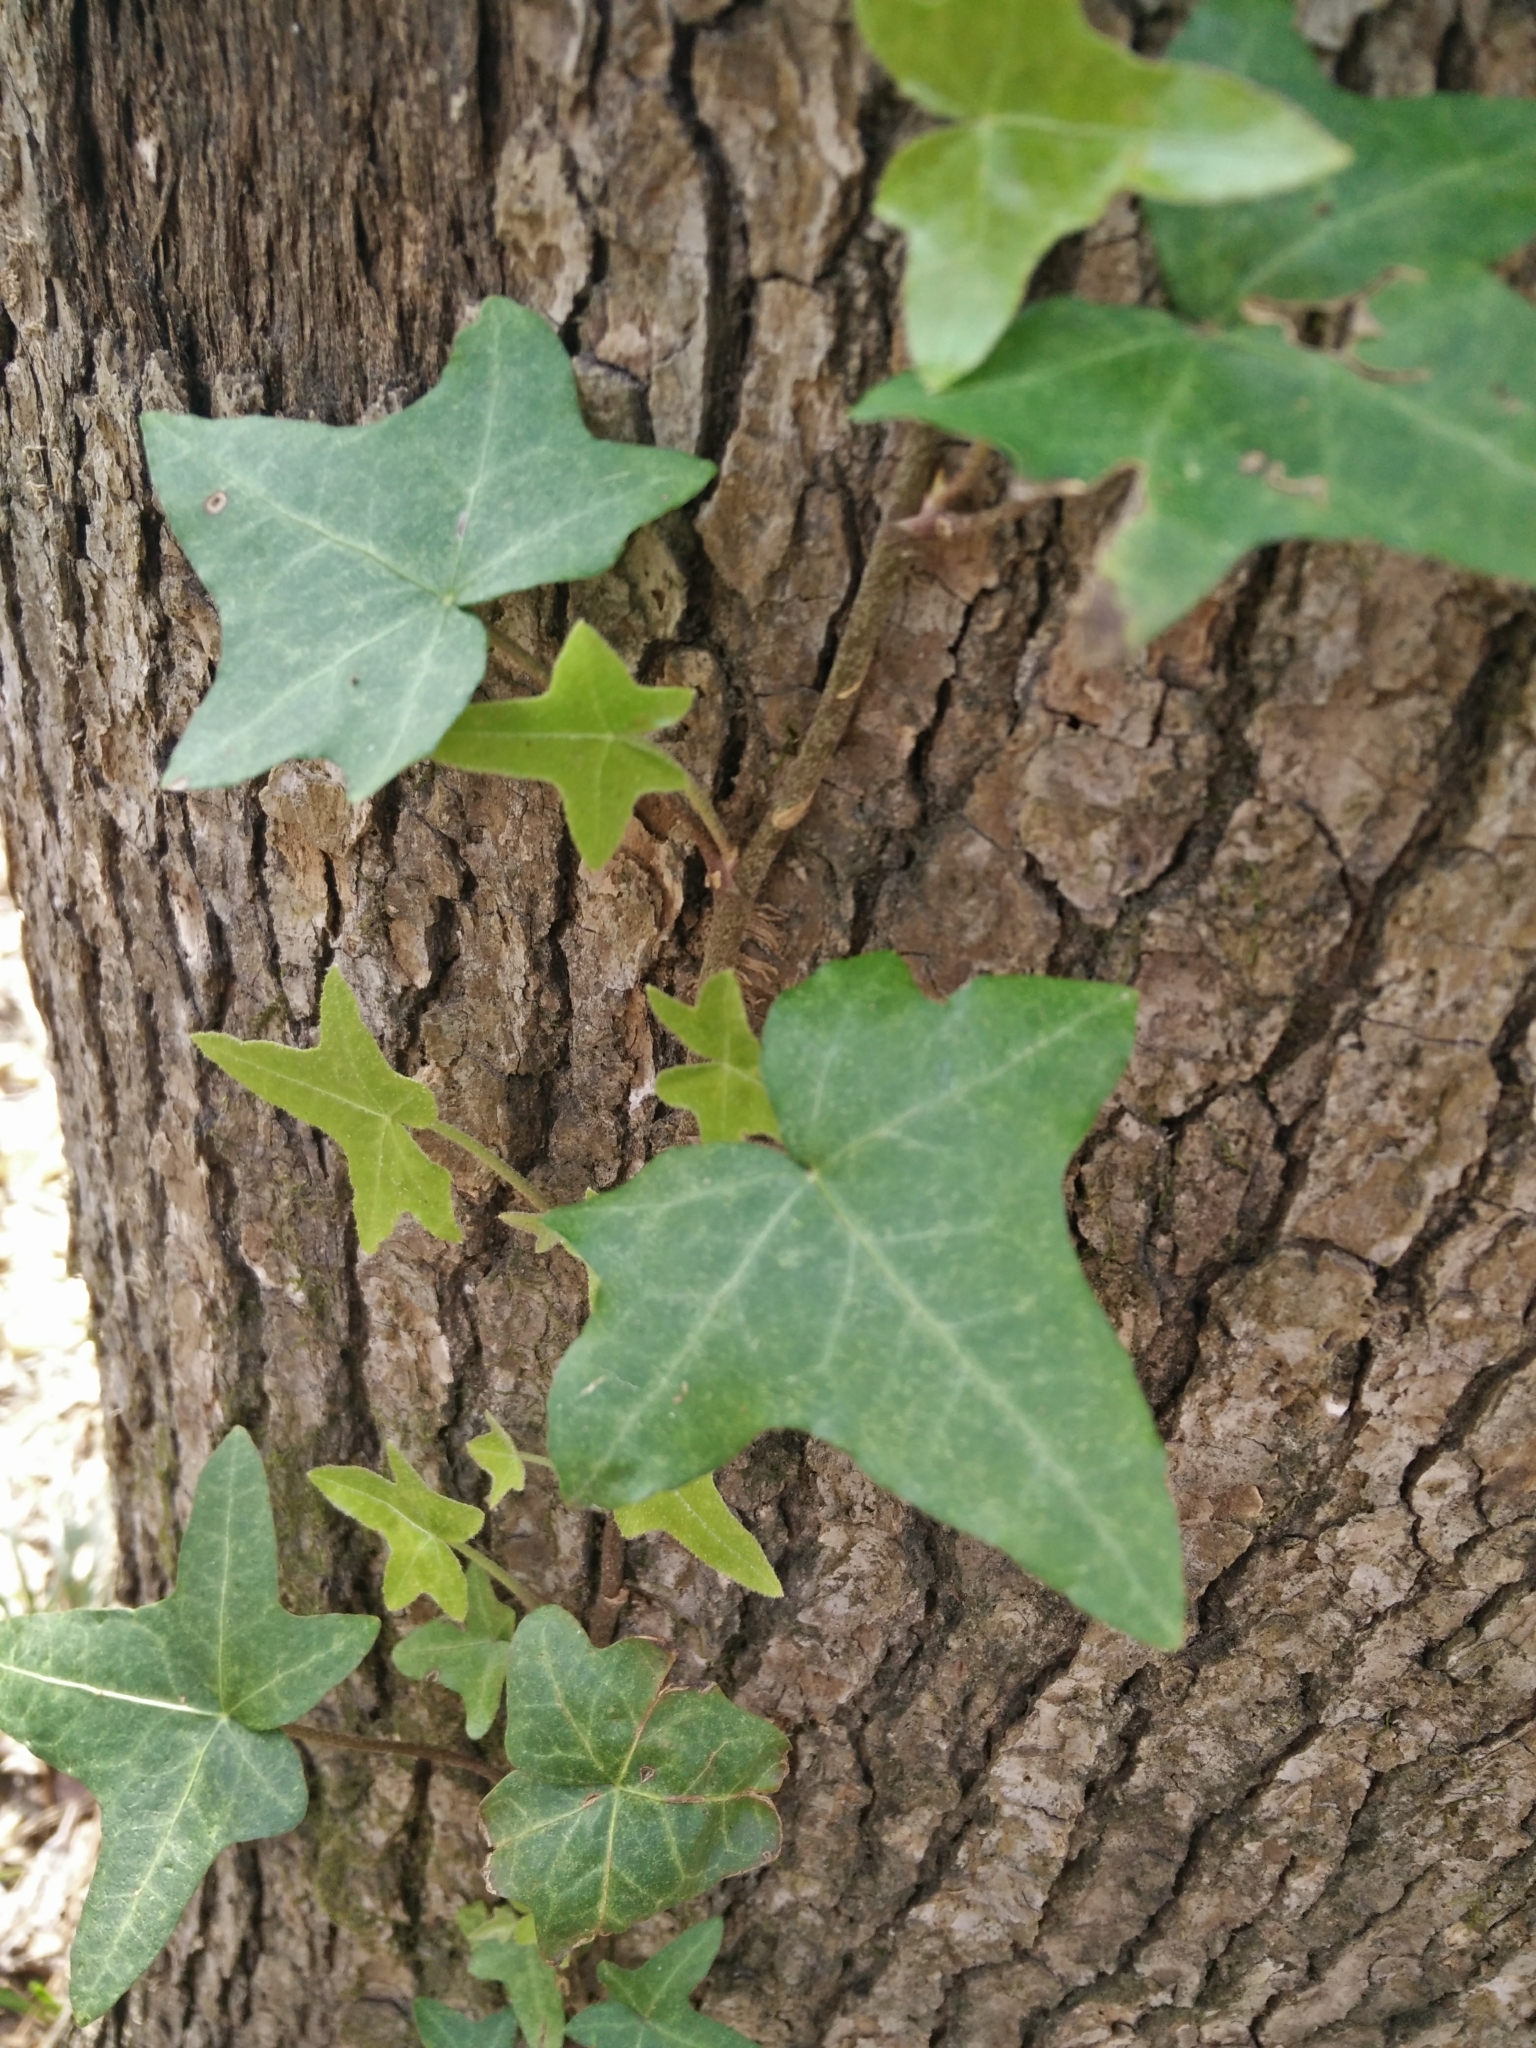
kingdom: Plantae
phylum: Tracheophyta
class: Magnoliopsida
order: Apiales
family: Araliaceae
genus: Hedera
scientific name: Hedera helix
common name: Ivy
